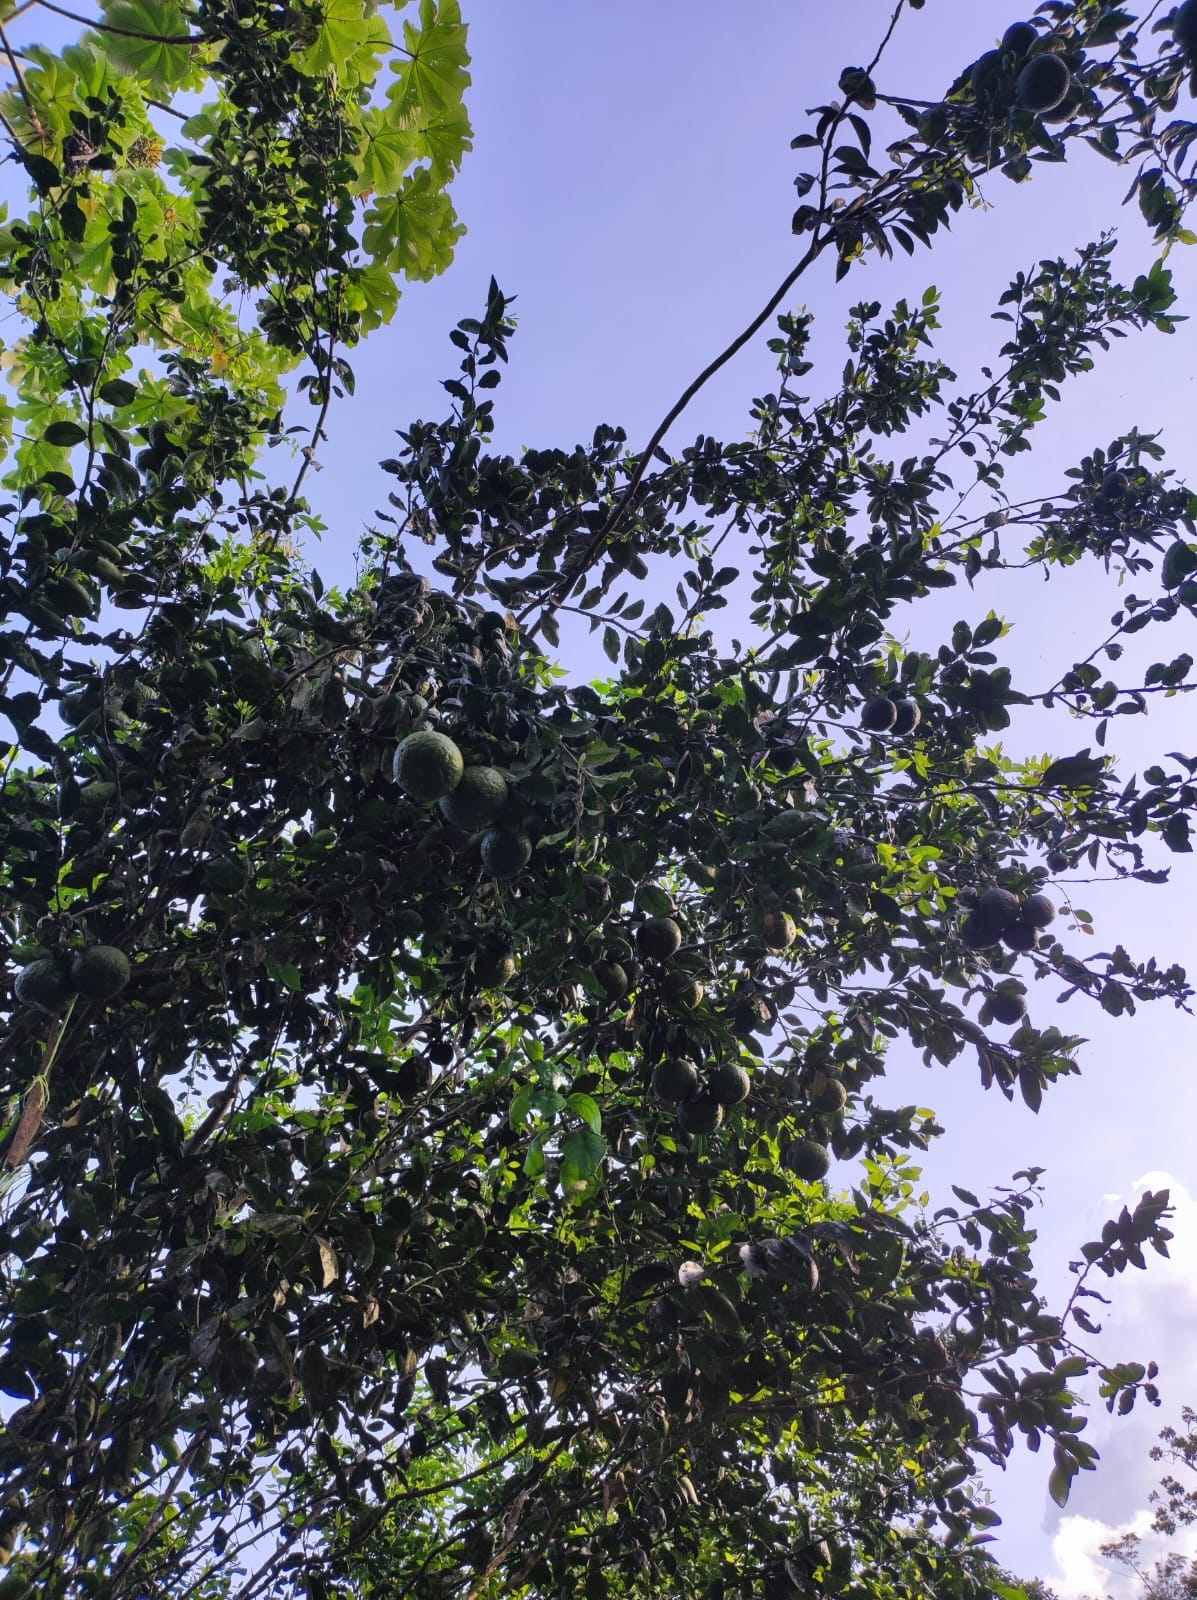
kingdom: Plantae
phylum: Tracheophyta
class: Magnoliopsida
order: Sapindales
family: Rutaceae
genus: Aegle
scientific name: Aegle marmelos
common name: Bael
